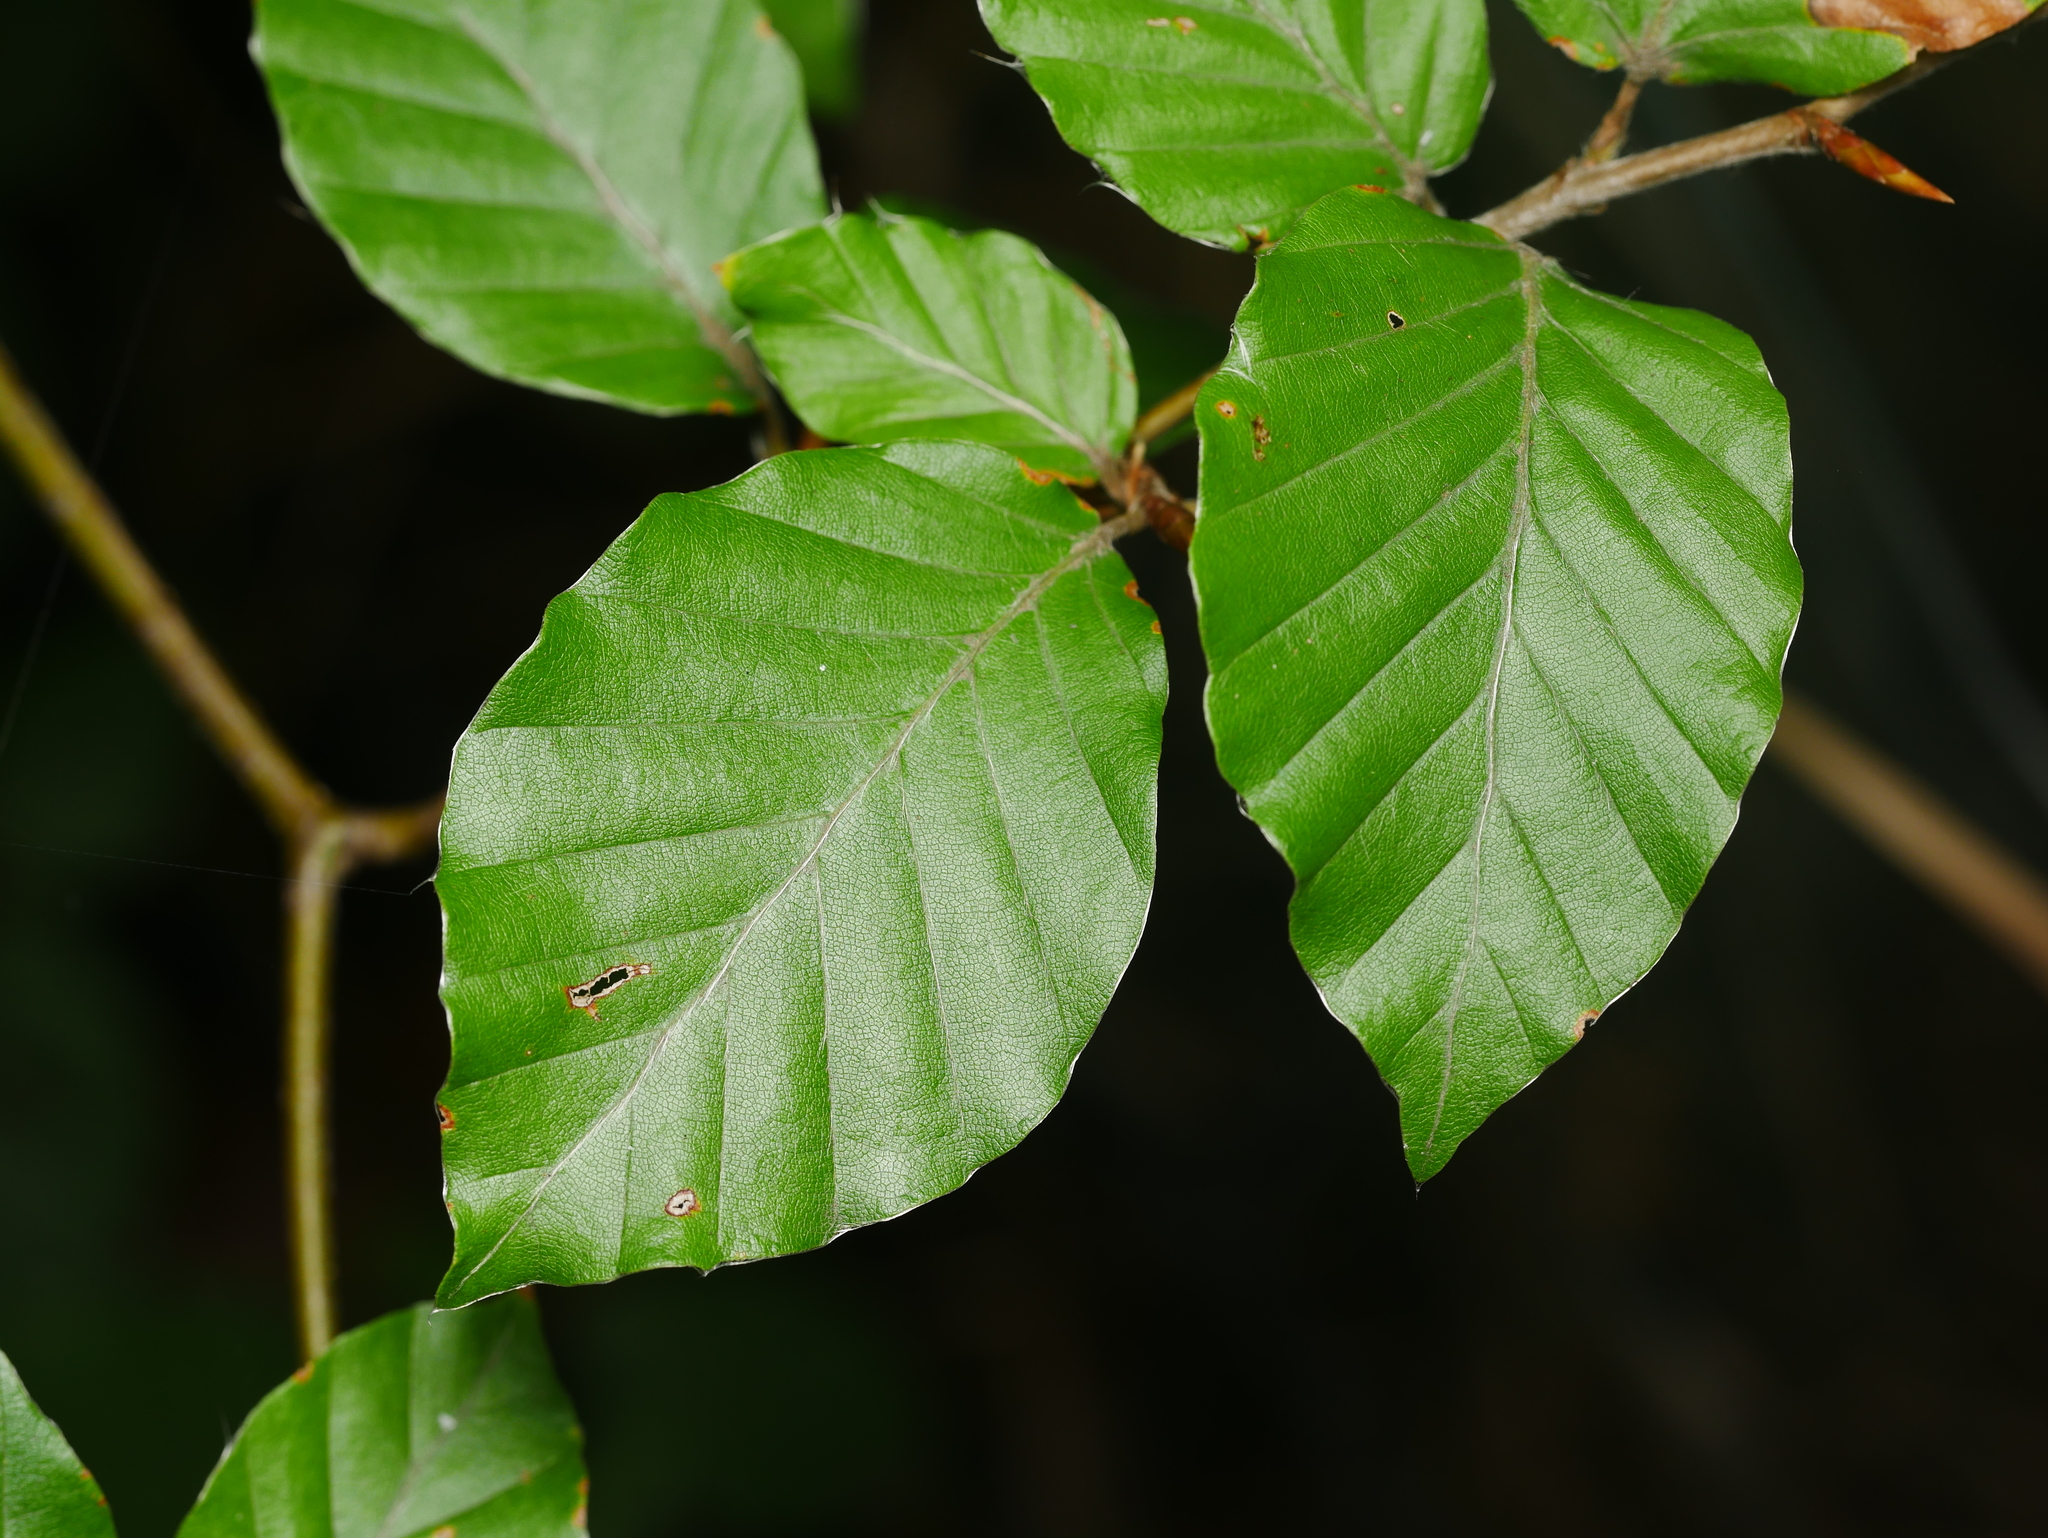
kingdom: Plantae
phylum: Tracheophyta
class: Magnoliopsida
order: Fagales
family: Fagaceae
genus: Fagus
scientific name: Fagus sylvatica
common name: Beech
